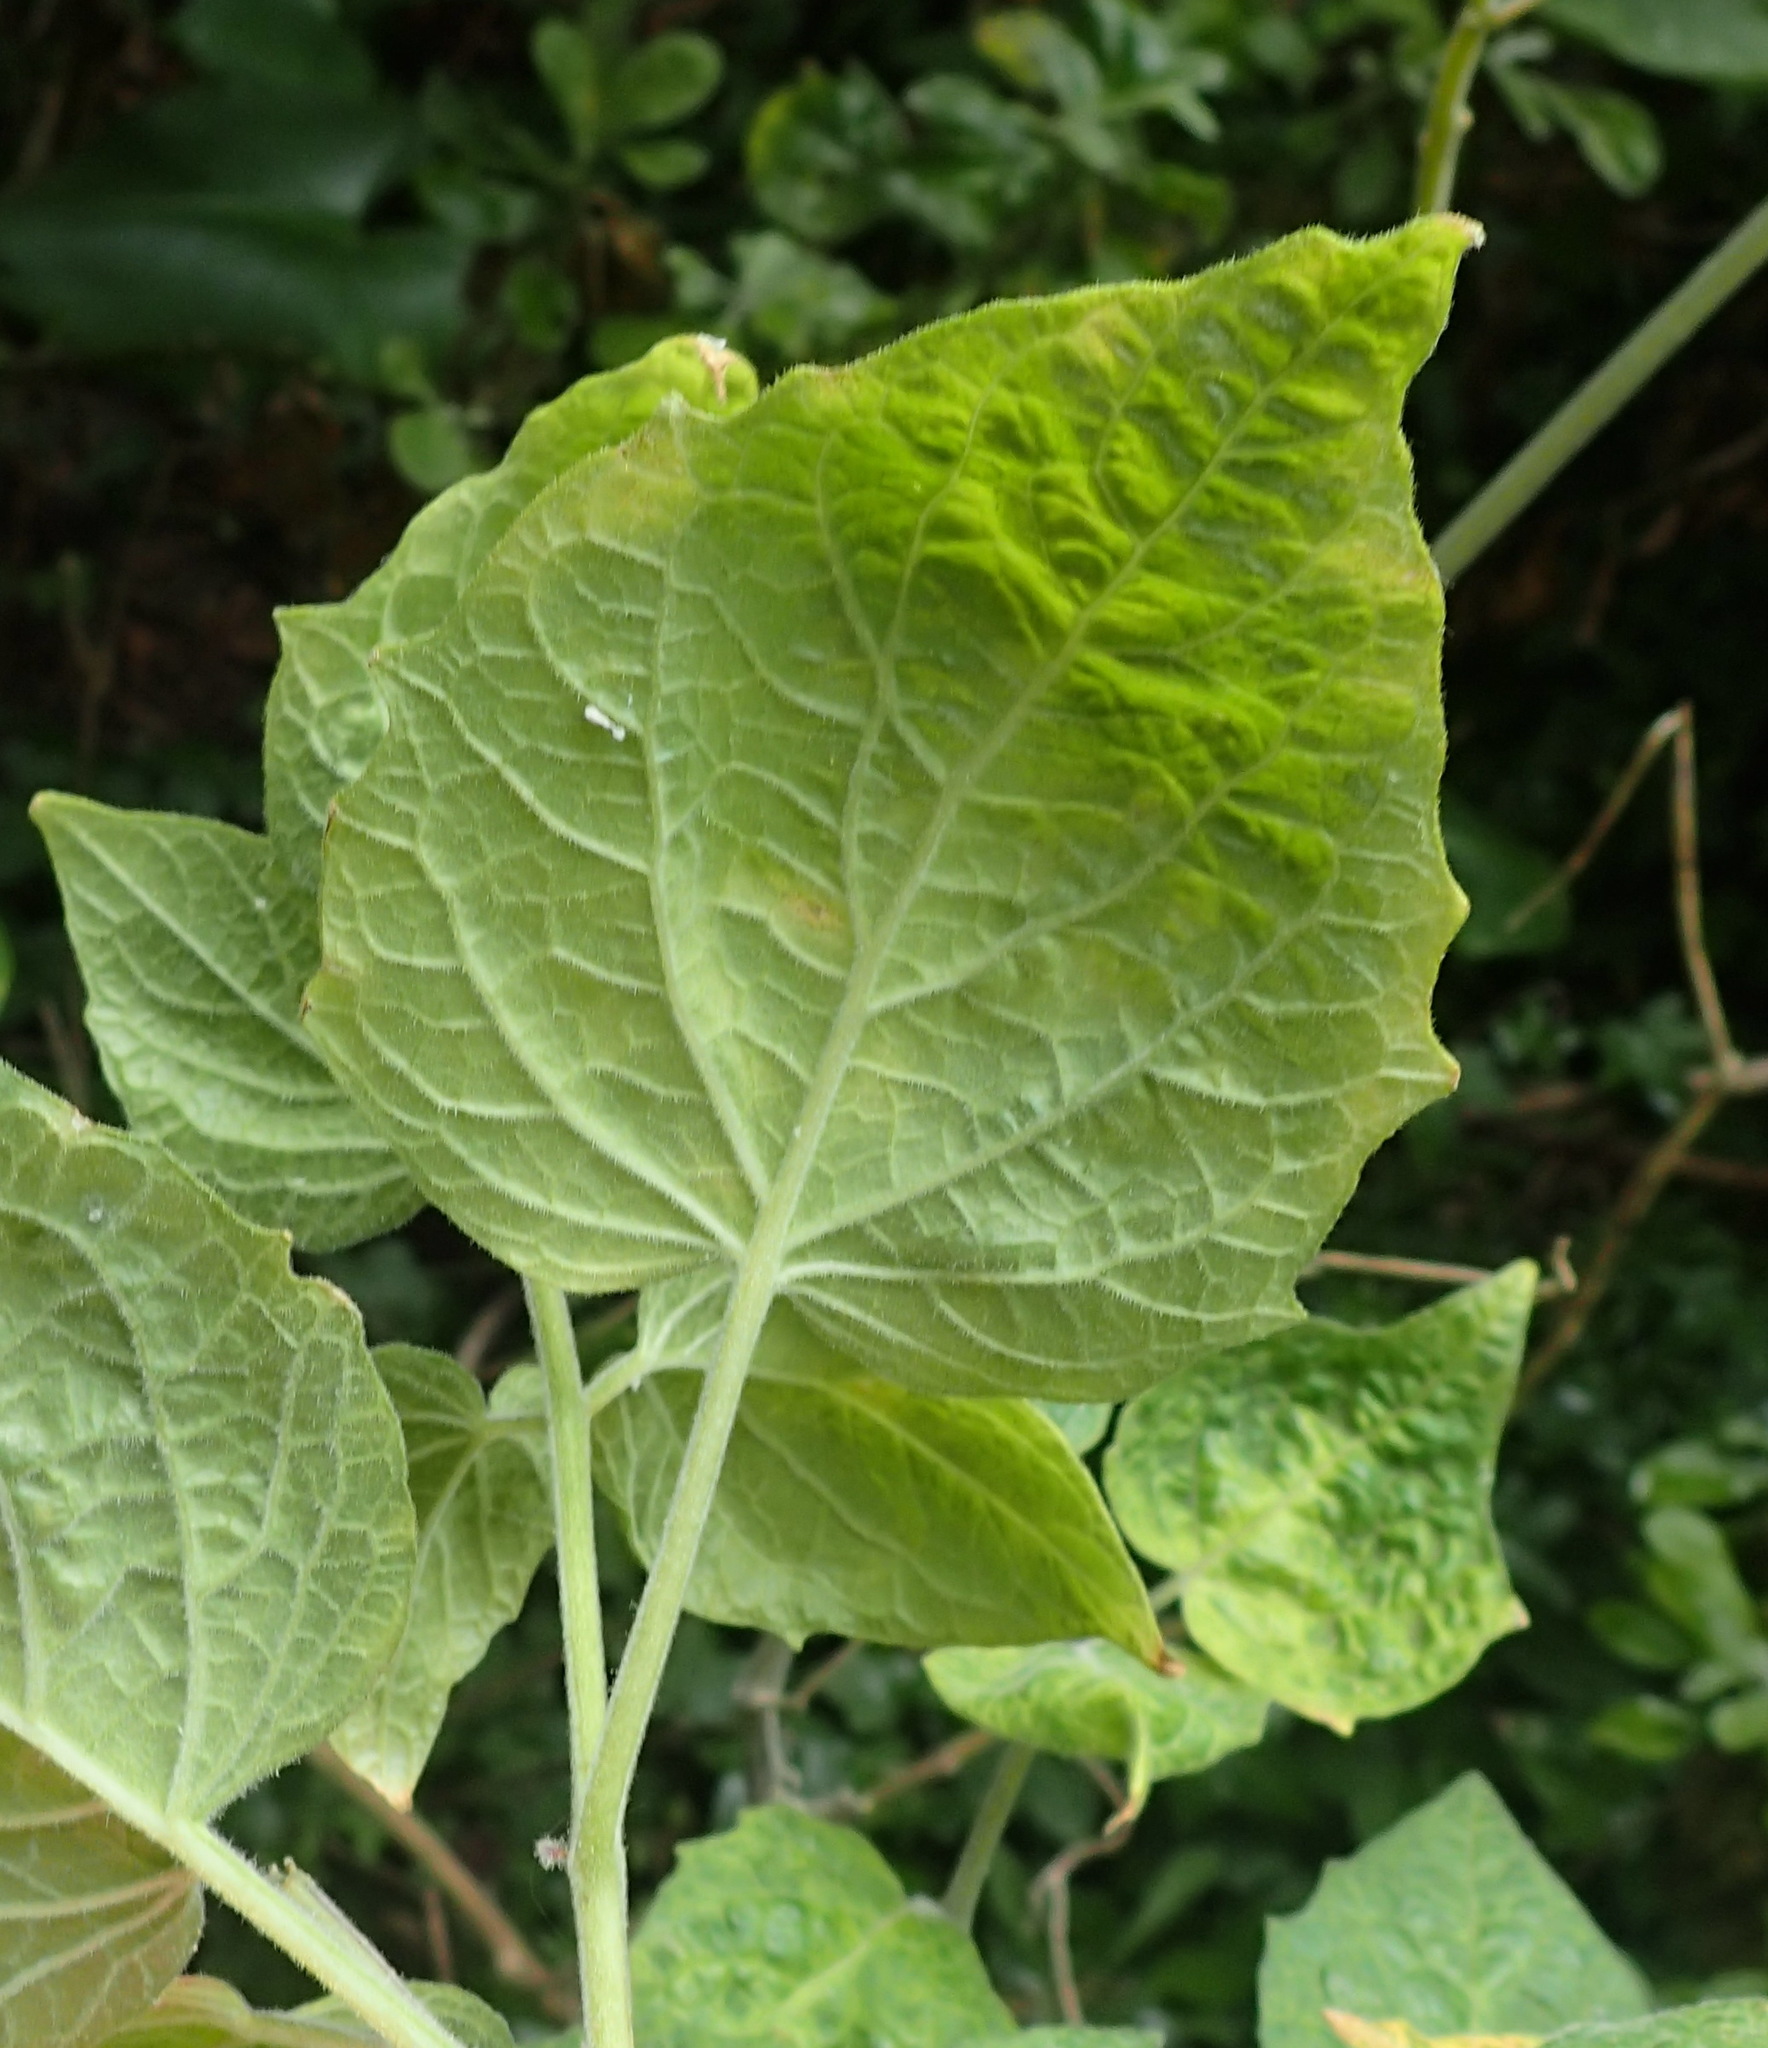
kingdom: Plantae
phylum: Tracheophyta
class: Magnoliopsida
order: Solanales
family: Solanaceae
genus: Physalis
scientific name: Physalis peruviana
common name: Cape-gooseberry
